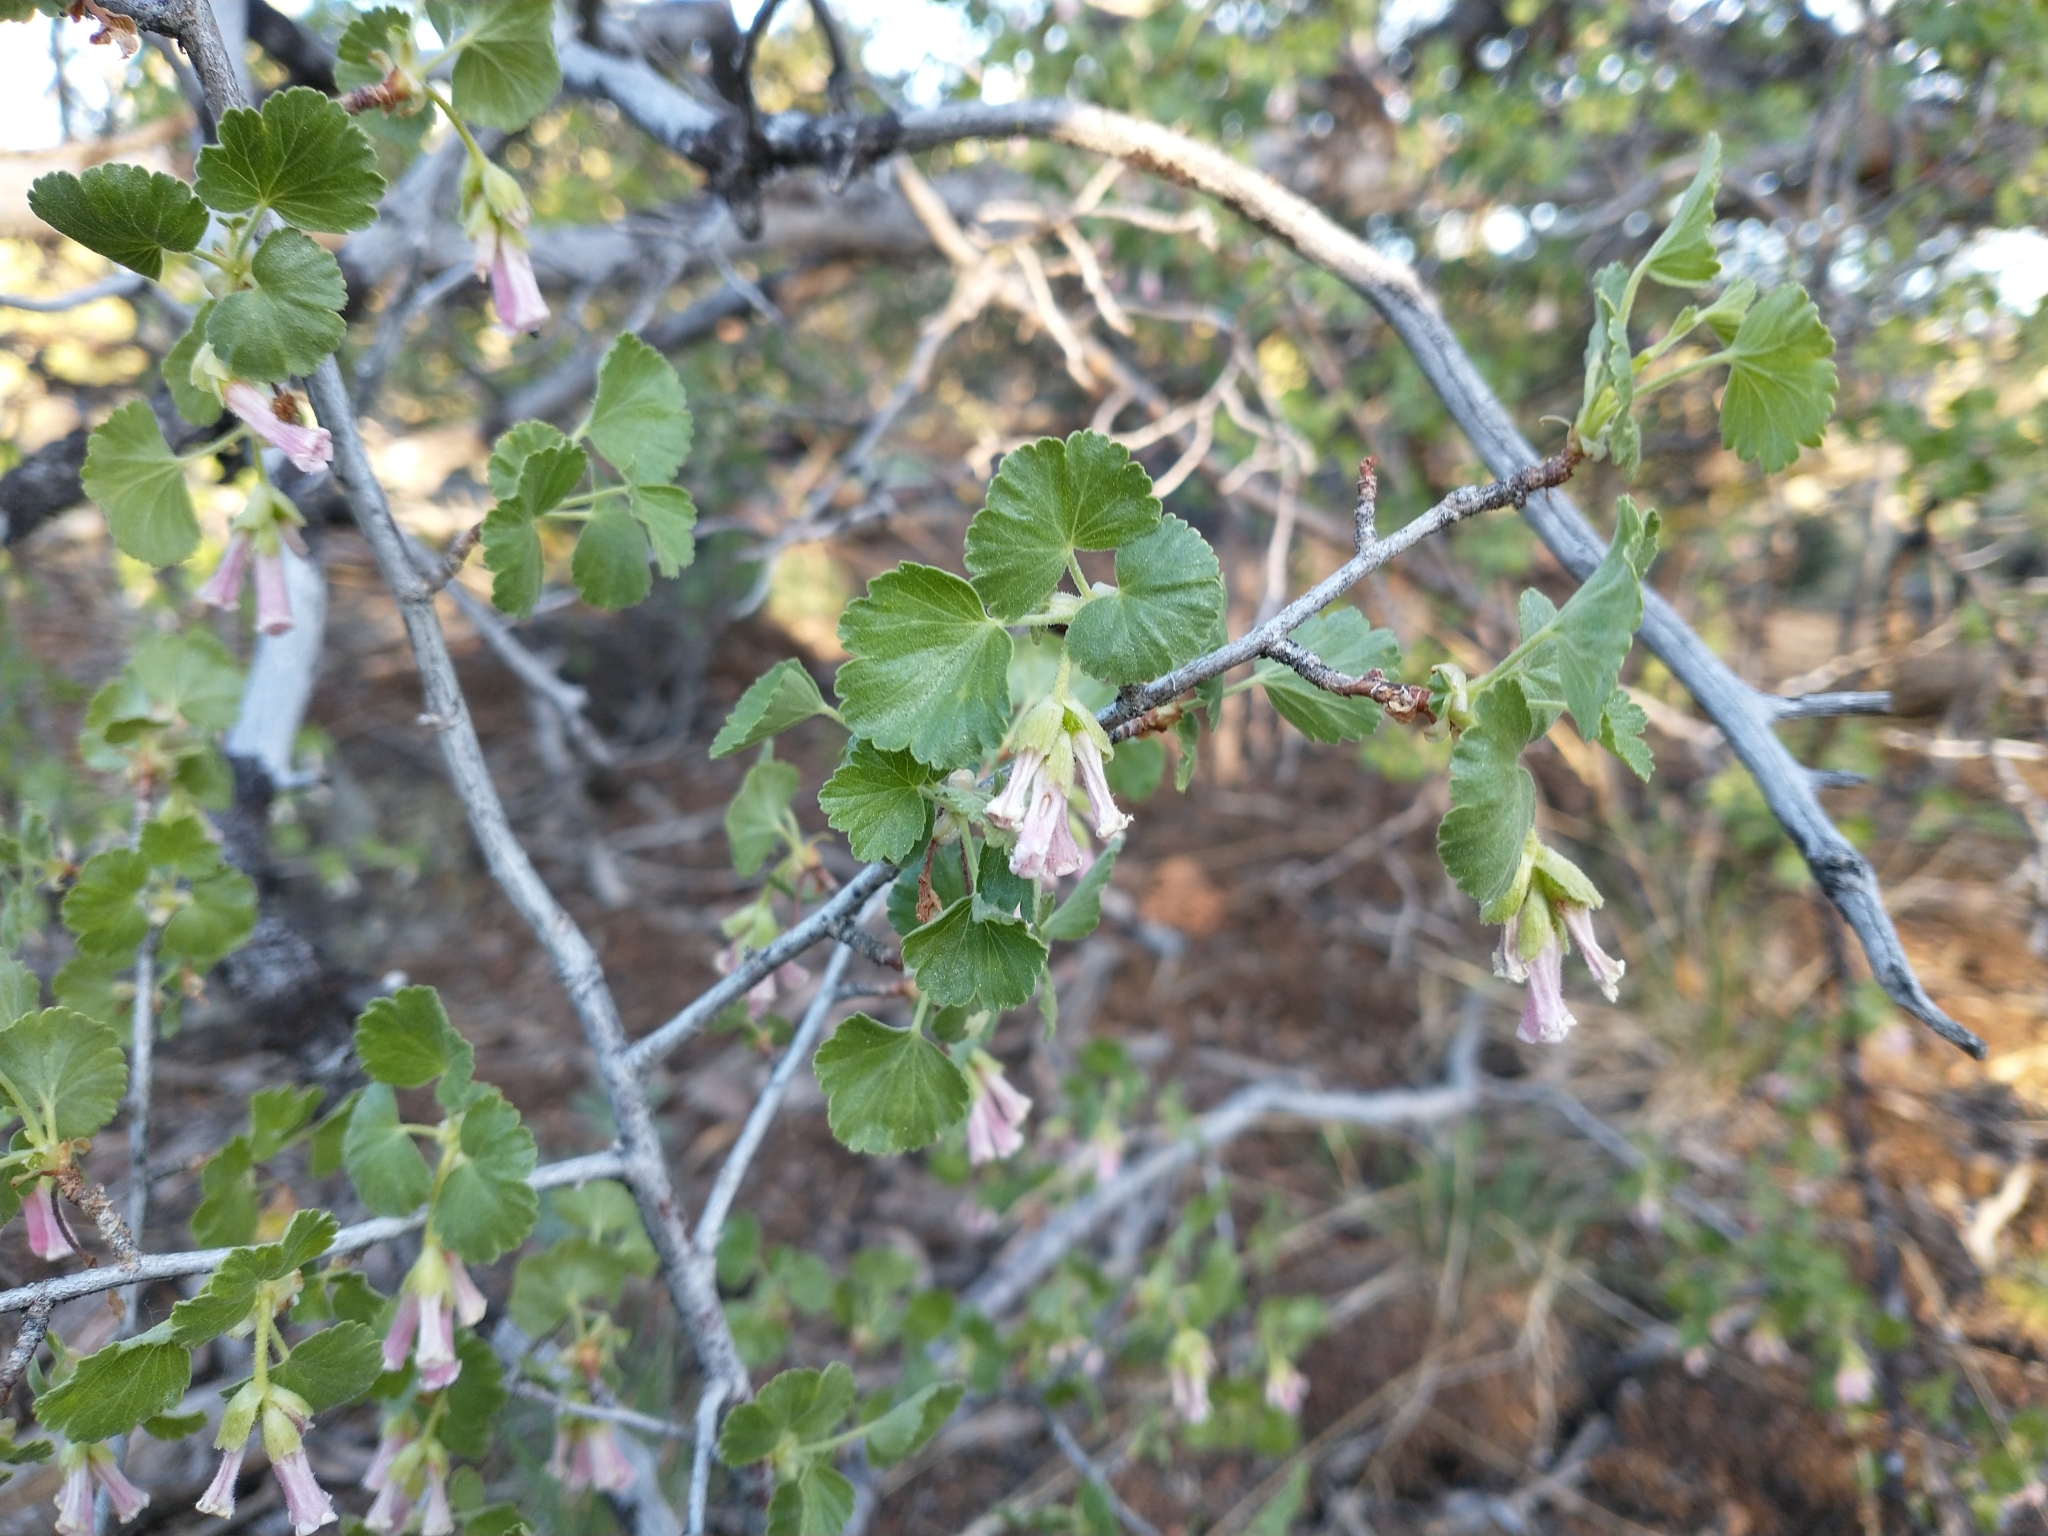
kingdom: Plantae
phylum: Tracheophyta
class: Magnoliopsida
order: Saxifragales
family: Grossulariaceae
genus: Ribes
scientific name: Ribes cereum
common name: Wax currant
